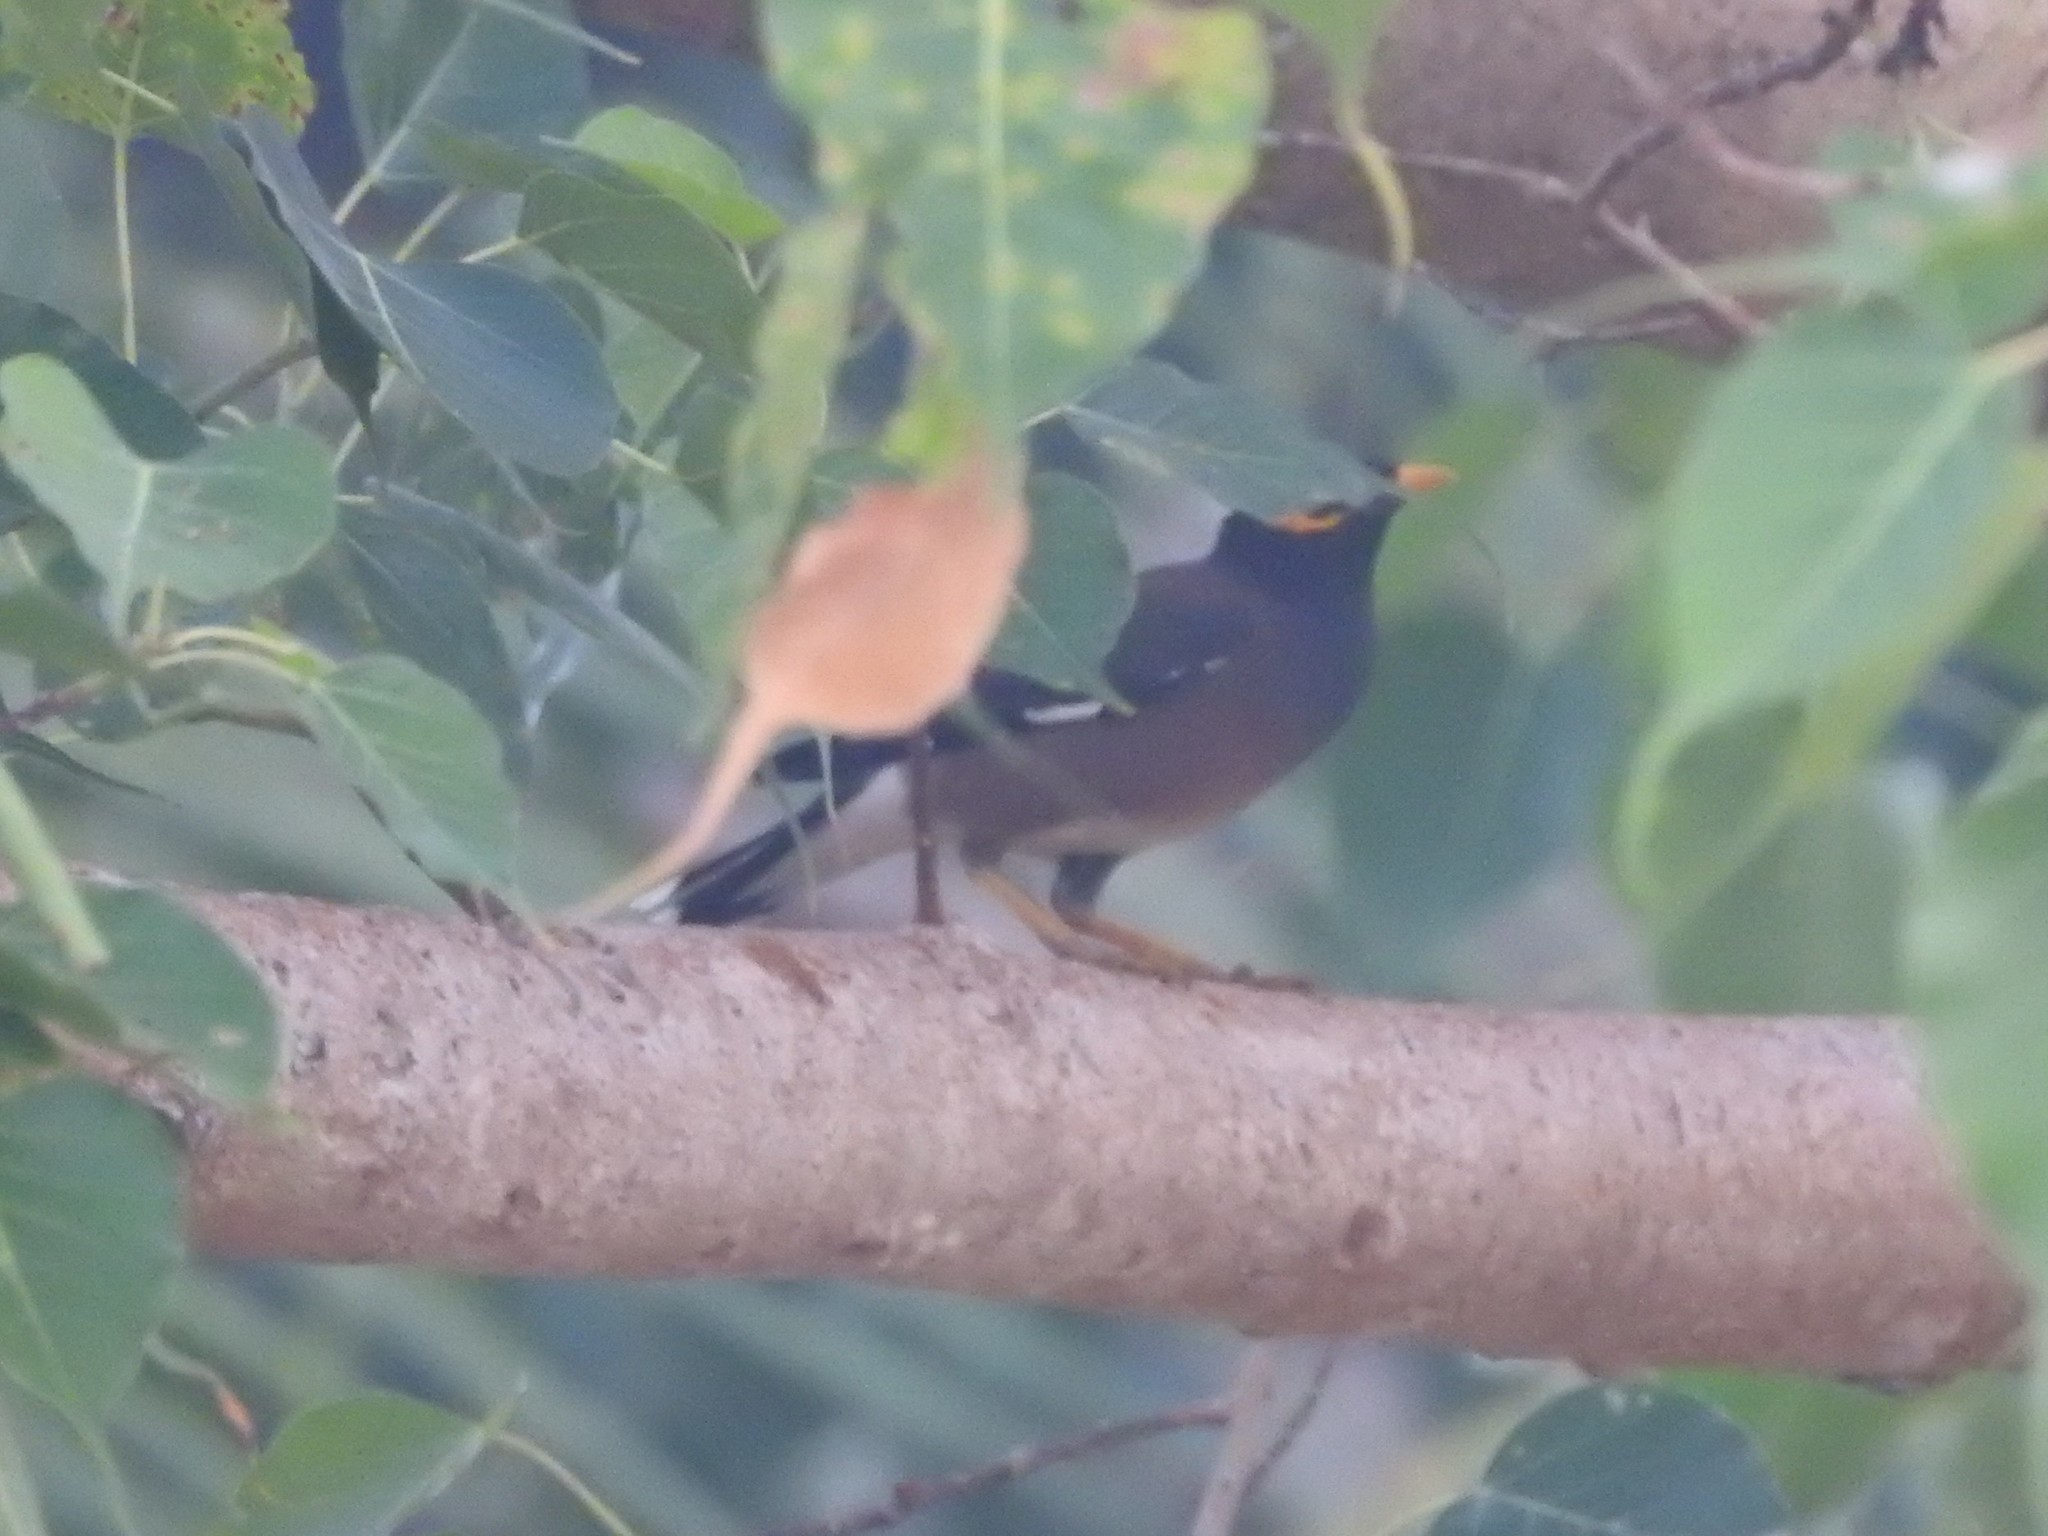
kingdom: Animalia
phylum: Chordata
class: Aves
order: Passeriformes
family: Sturnidae
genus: Acridotheres
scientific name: Acridotheres tristis
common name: Common myna
